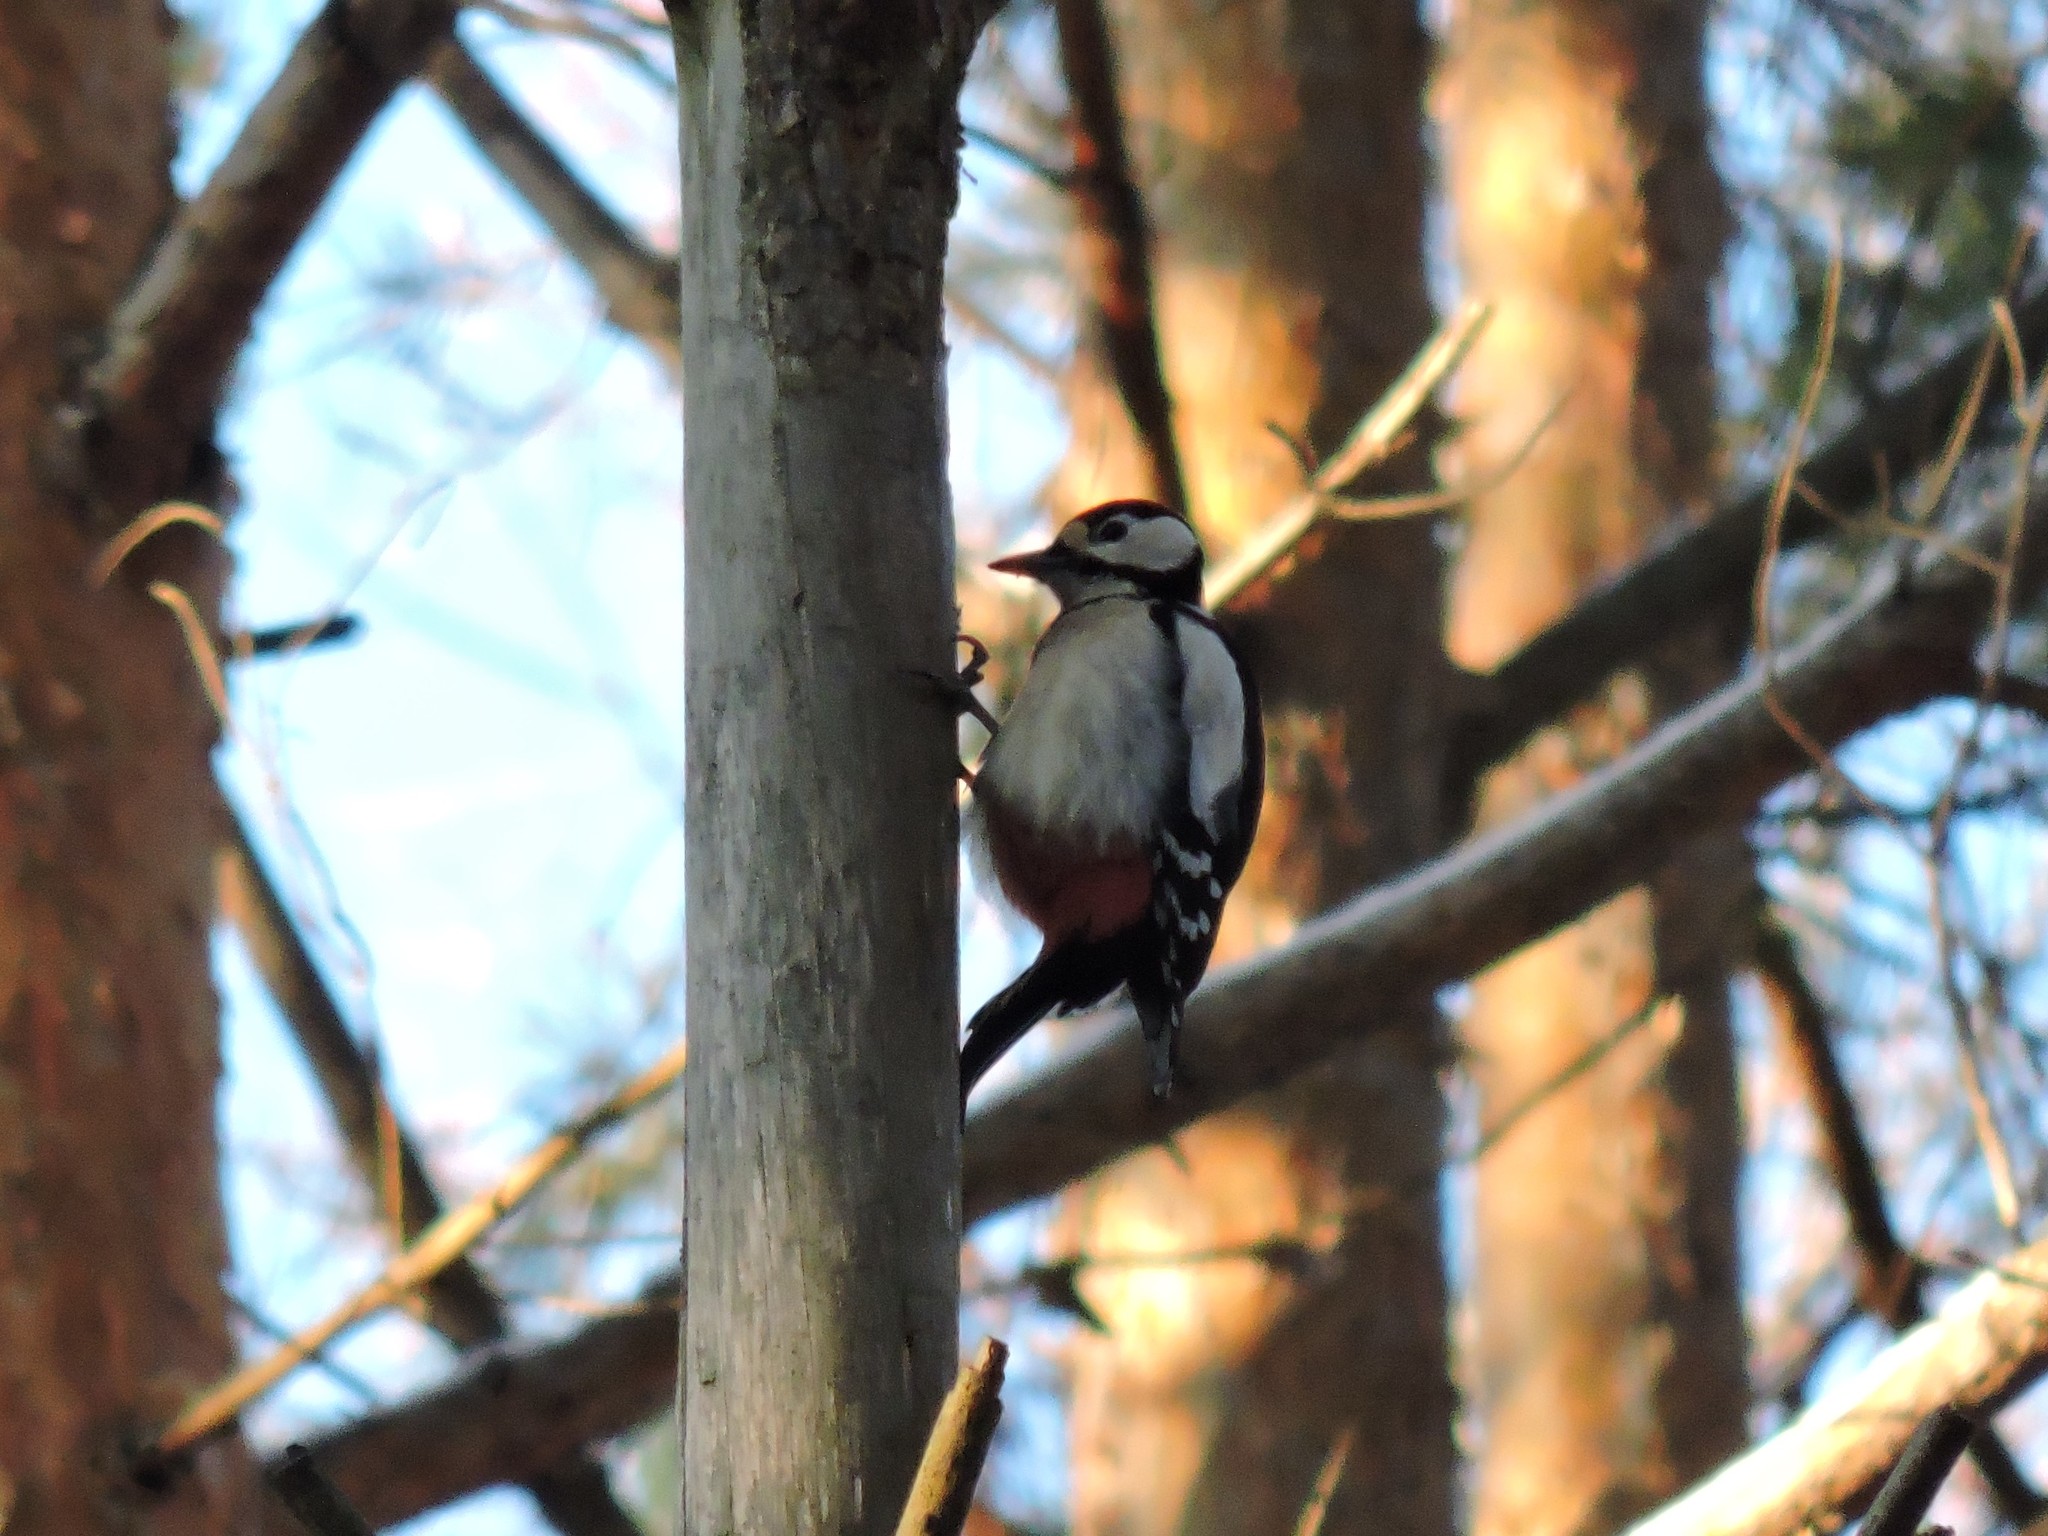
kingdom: Animalia
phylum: Chordata
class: Aves
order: Piciformes
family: Picidae
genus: Dendrocopos
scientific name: Dendrocopos major
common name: Great spotted woodpecker
